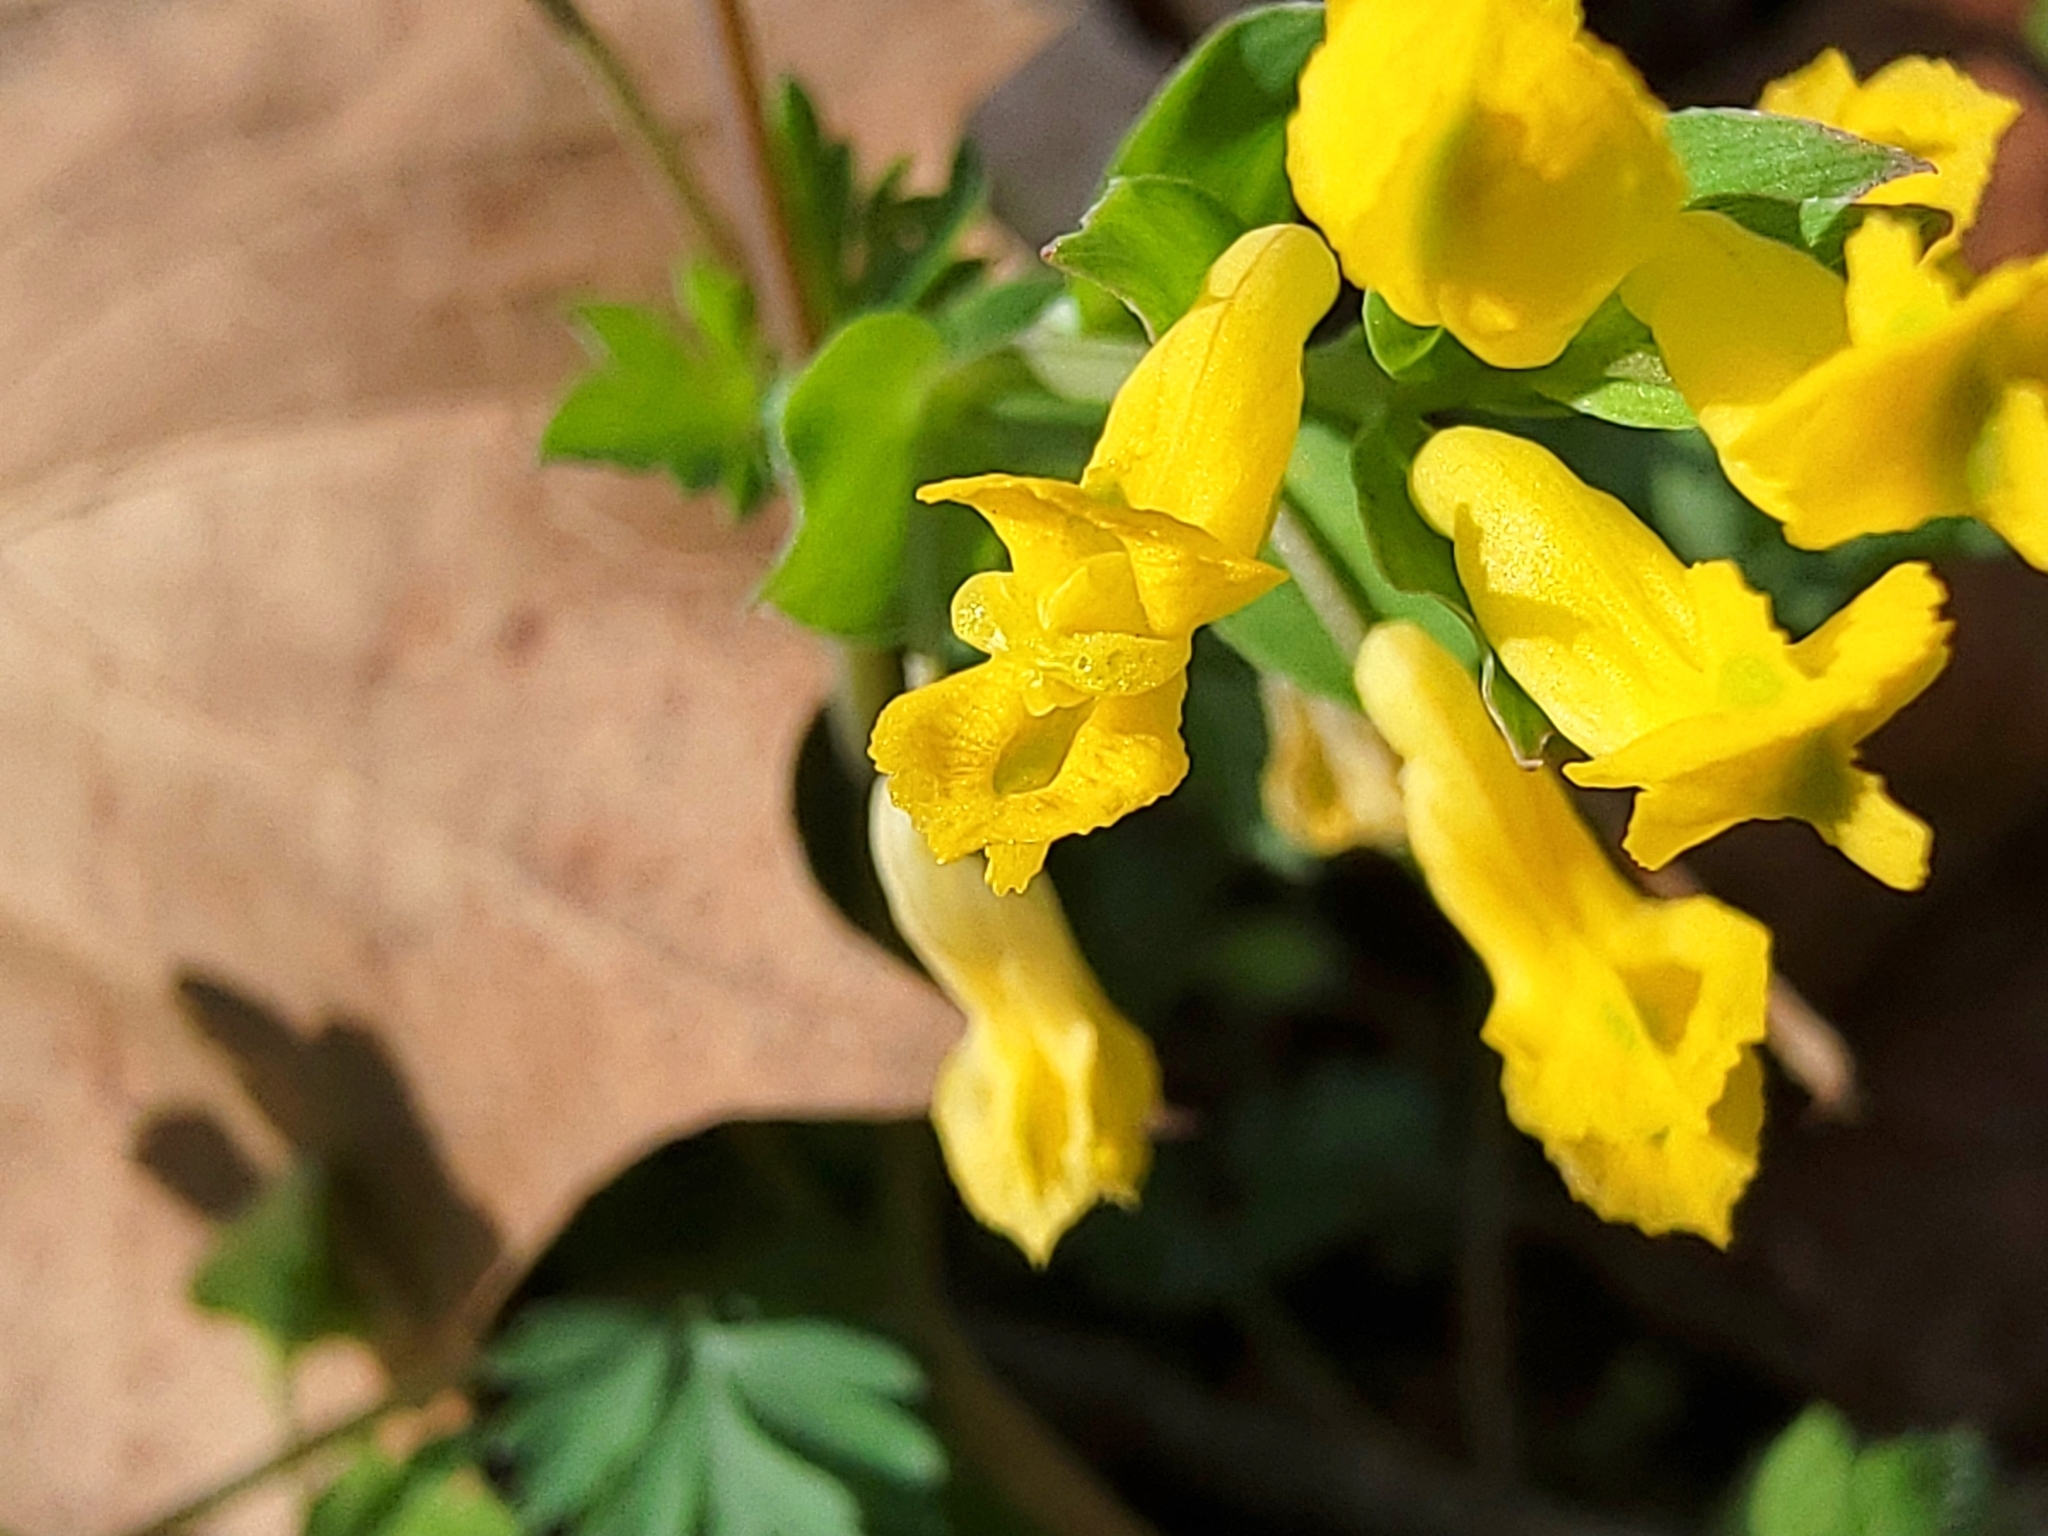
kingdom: Plantae
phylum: Tracheophyta
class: Magnoliopsida
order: Ranunculales
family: Papaveraceae
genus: Corydalis
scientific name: Corydalis flavula
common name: Yellow corydalis
